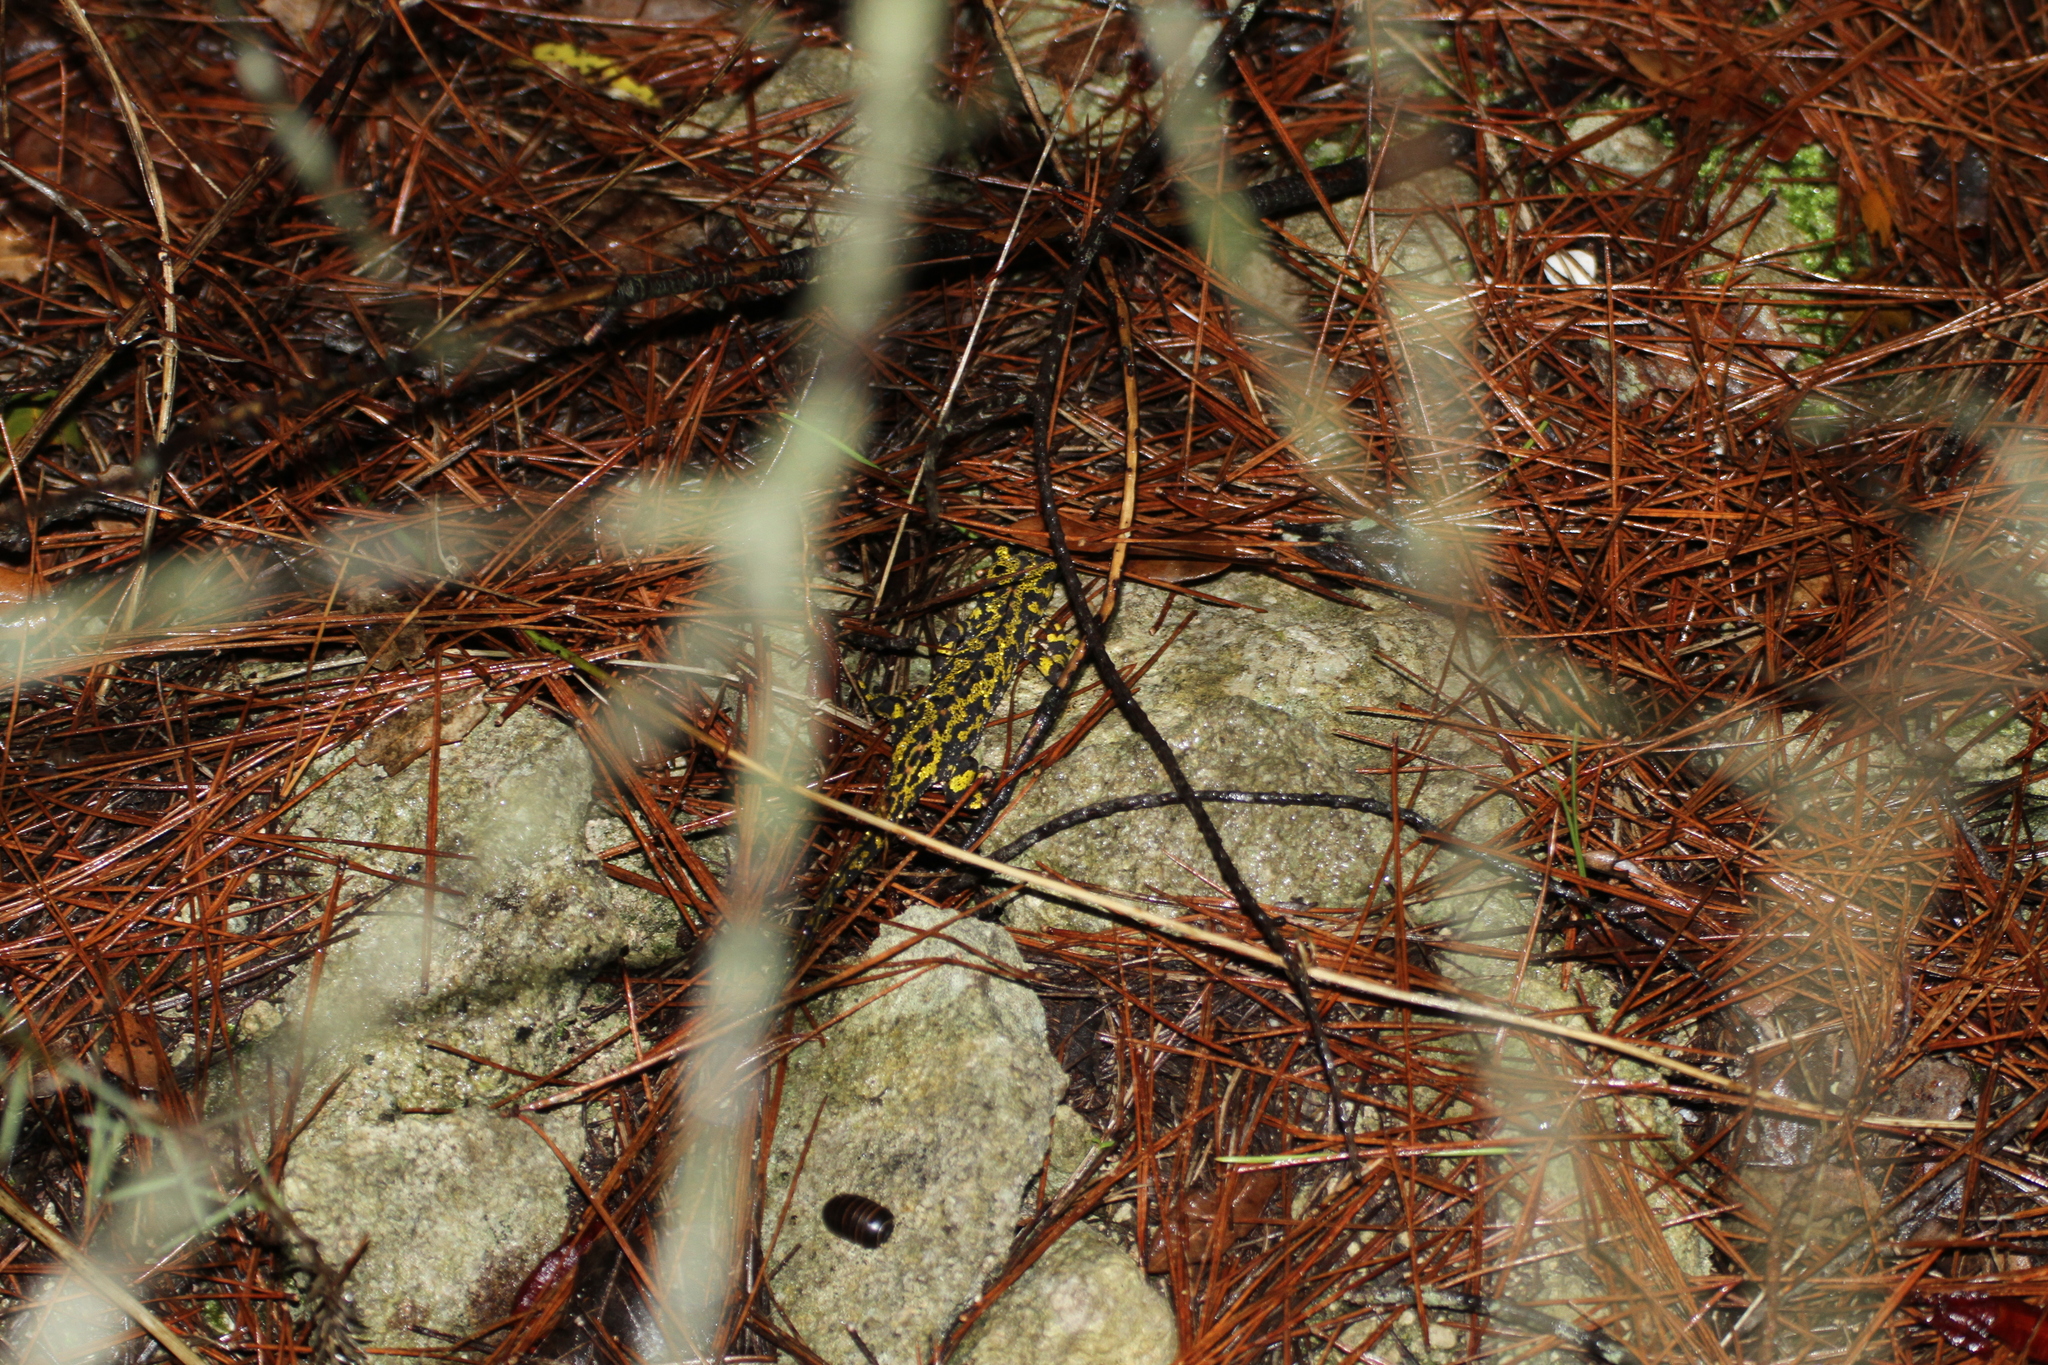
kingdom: Animalia
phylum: Chordata
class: Amphibia
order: Caudata
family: Salamandridae
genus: Triturus
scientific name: Triturus marmoratus
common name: Marbled newt
